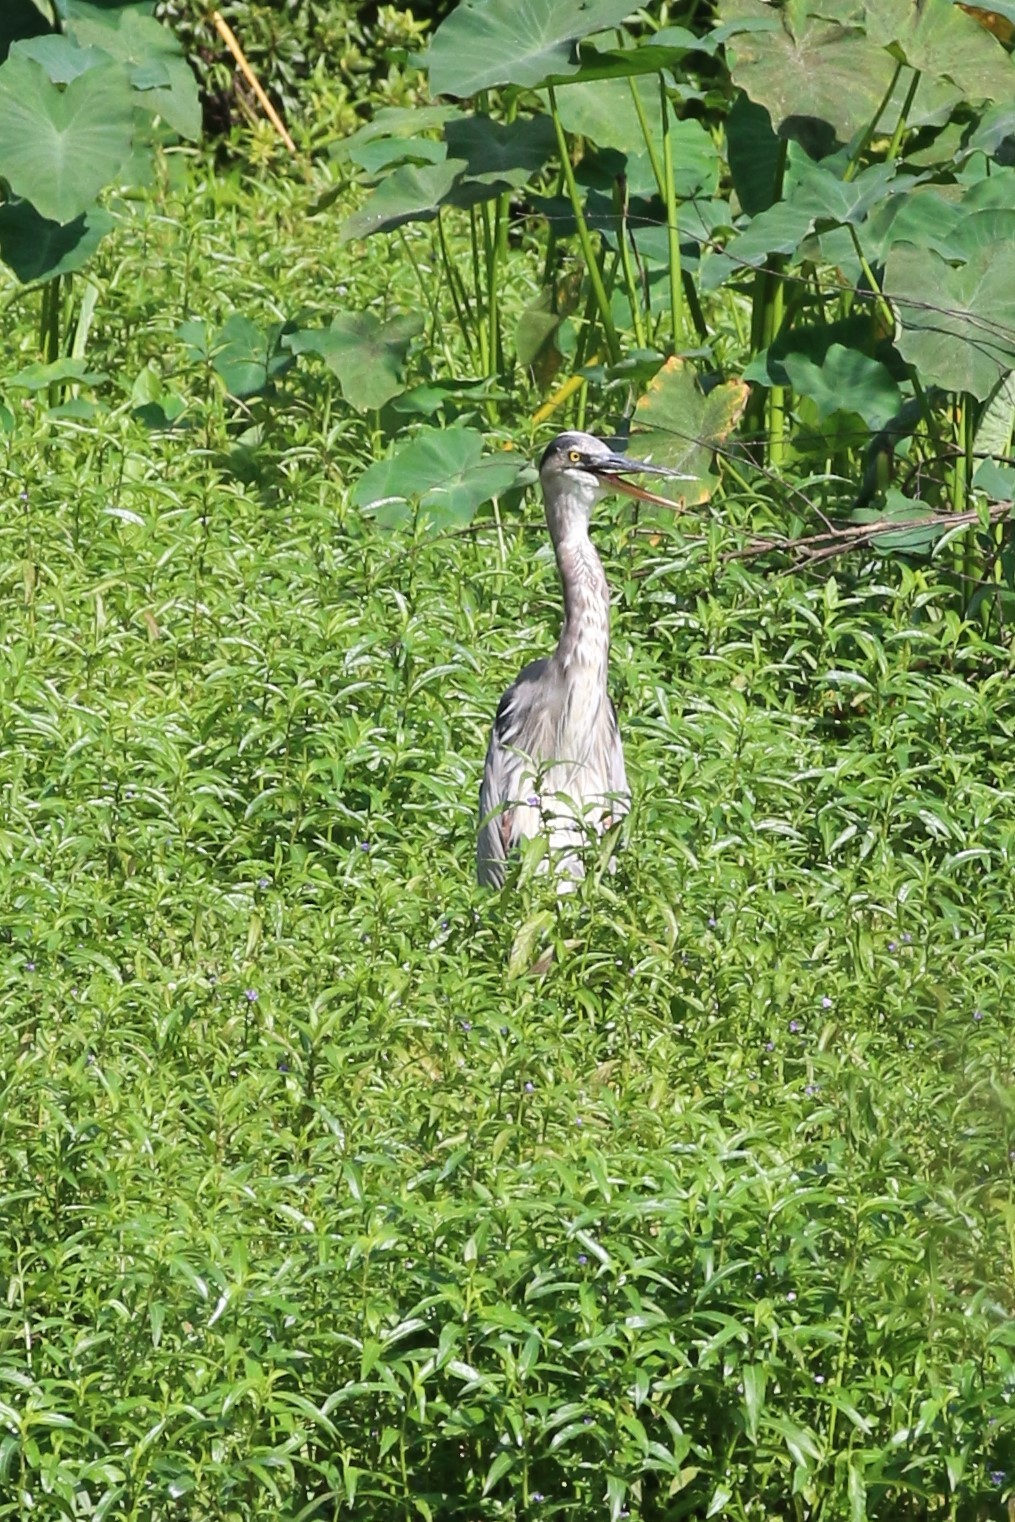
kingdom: Animalia
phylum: Chordata
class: Aves
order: Pelecaniformes
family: Ardeidae
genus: Ardea
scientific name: Ardea herodias
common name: Great blue heron
